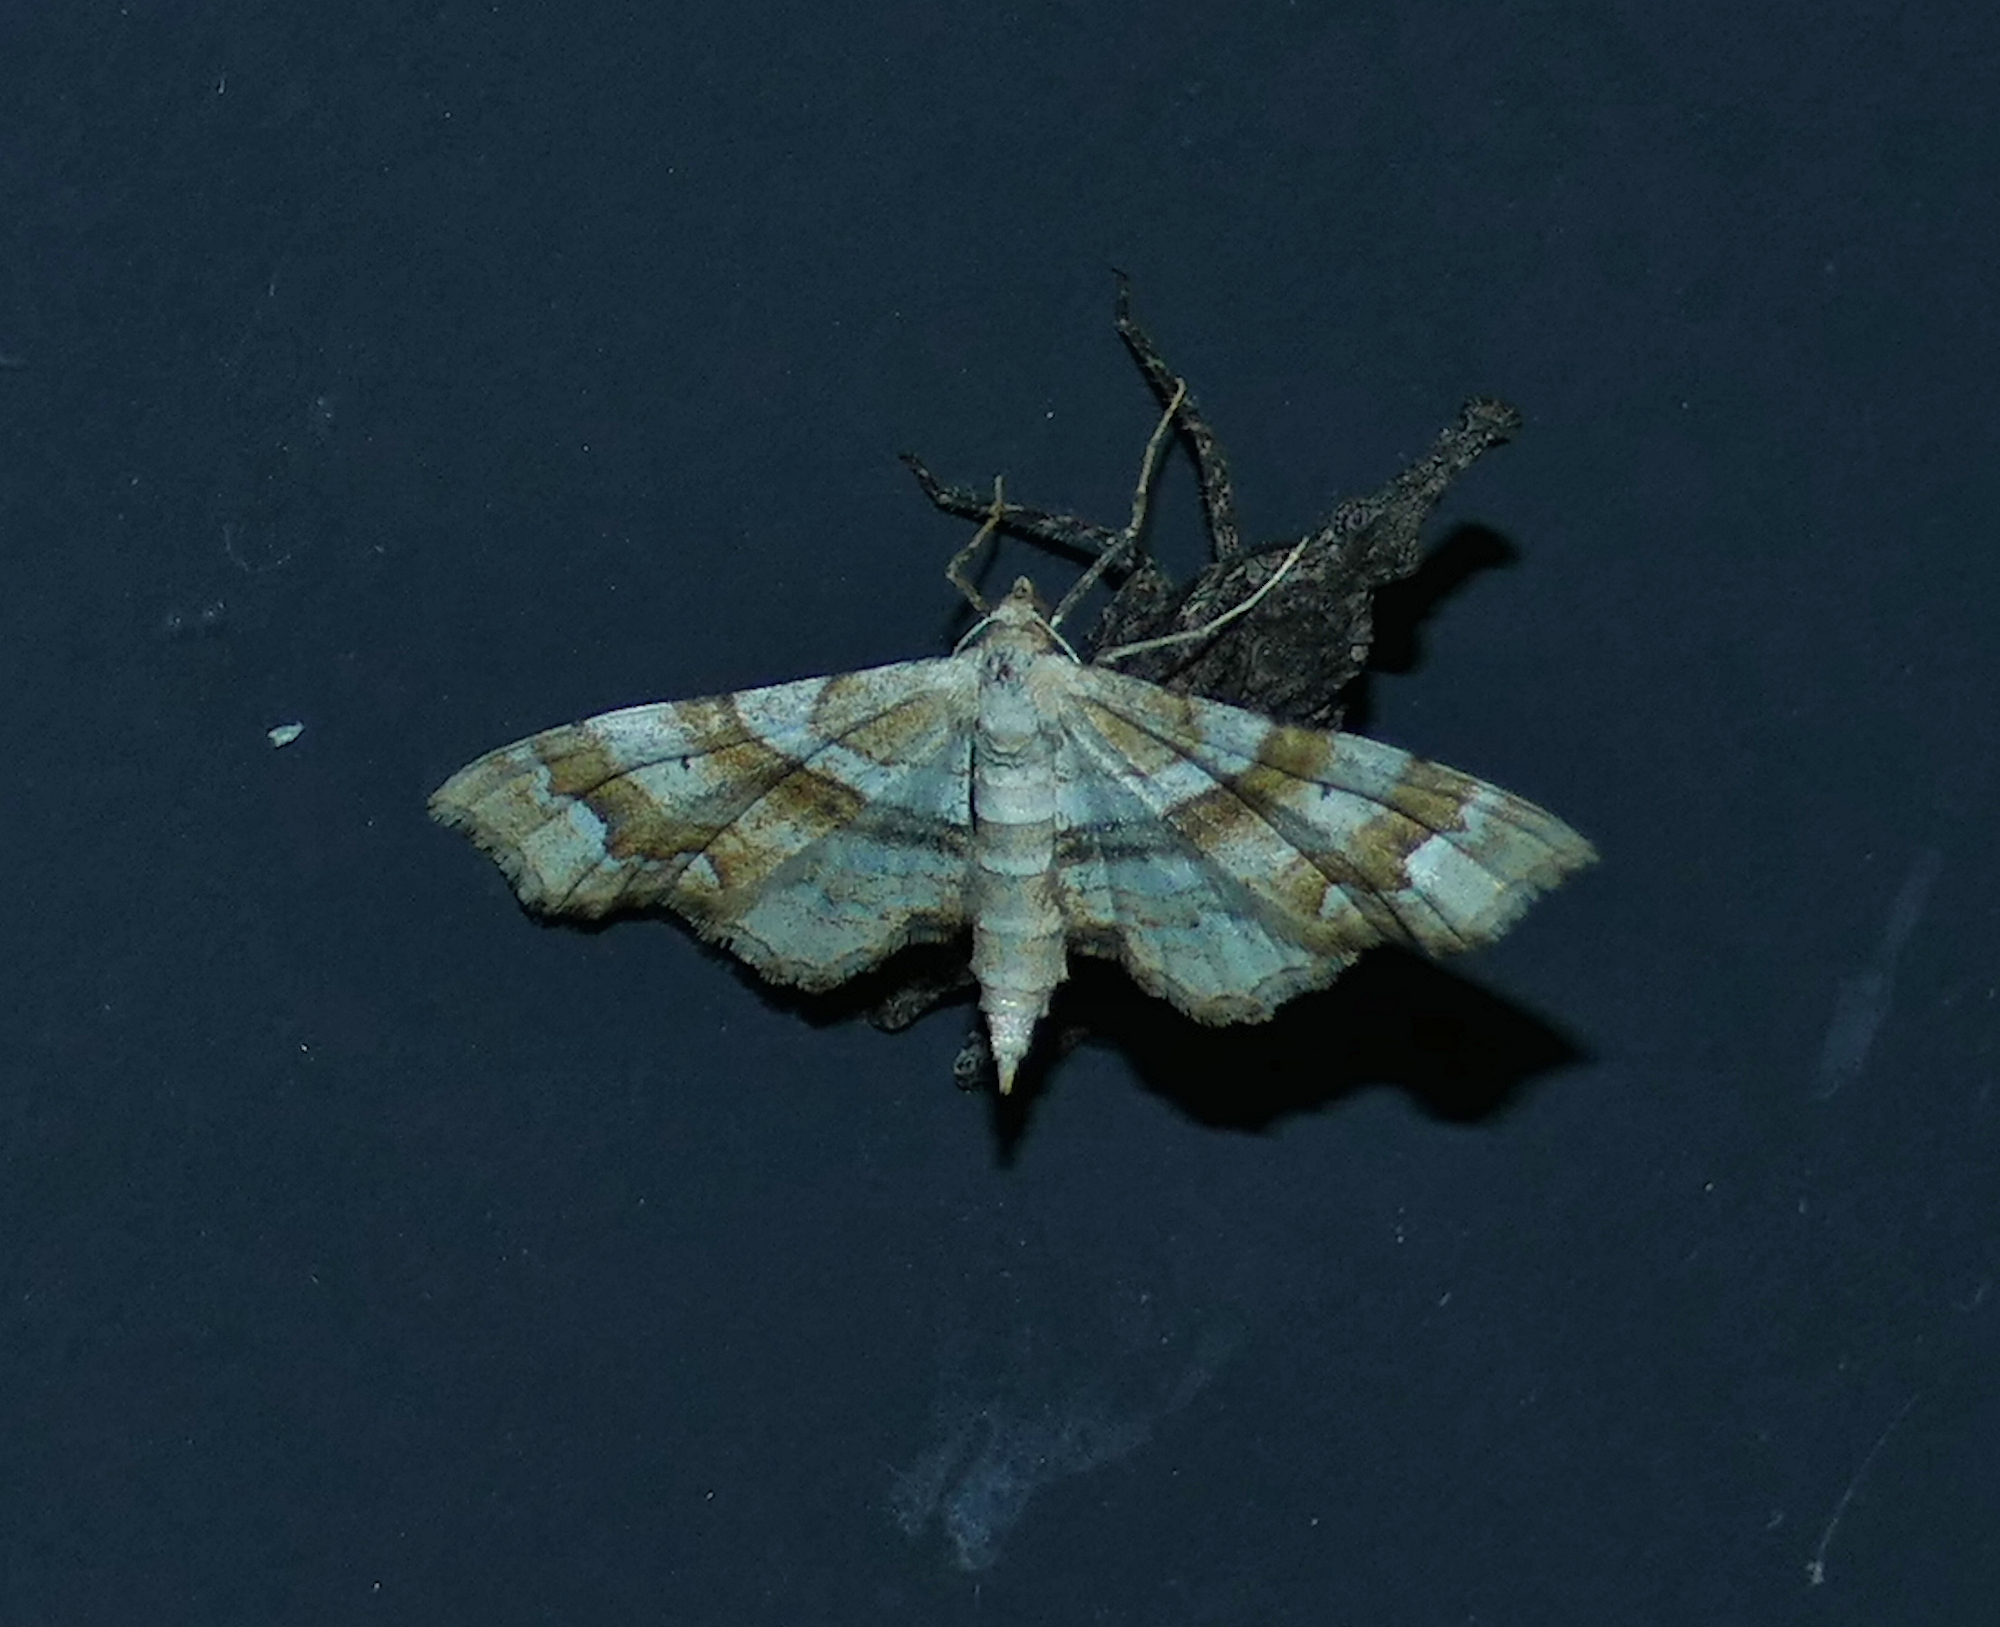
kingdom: Animalia
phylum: Arthropoda
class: Insecta
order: Lepidoptera
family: Geometridae
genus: Odontoptila
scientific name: Odontoptila obrimo
